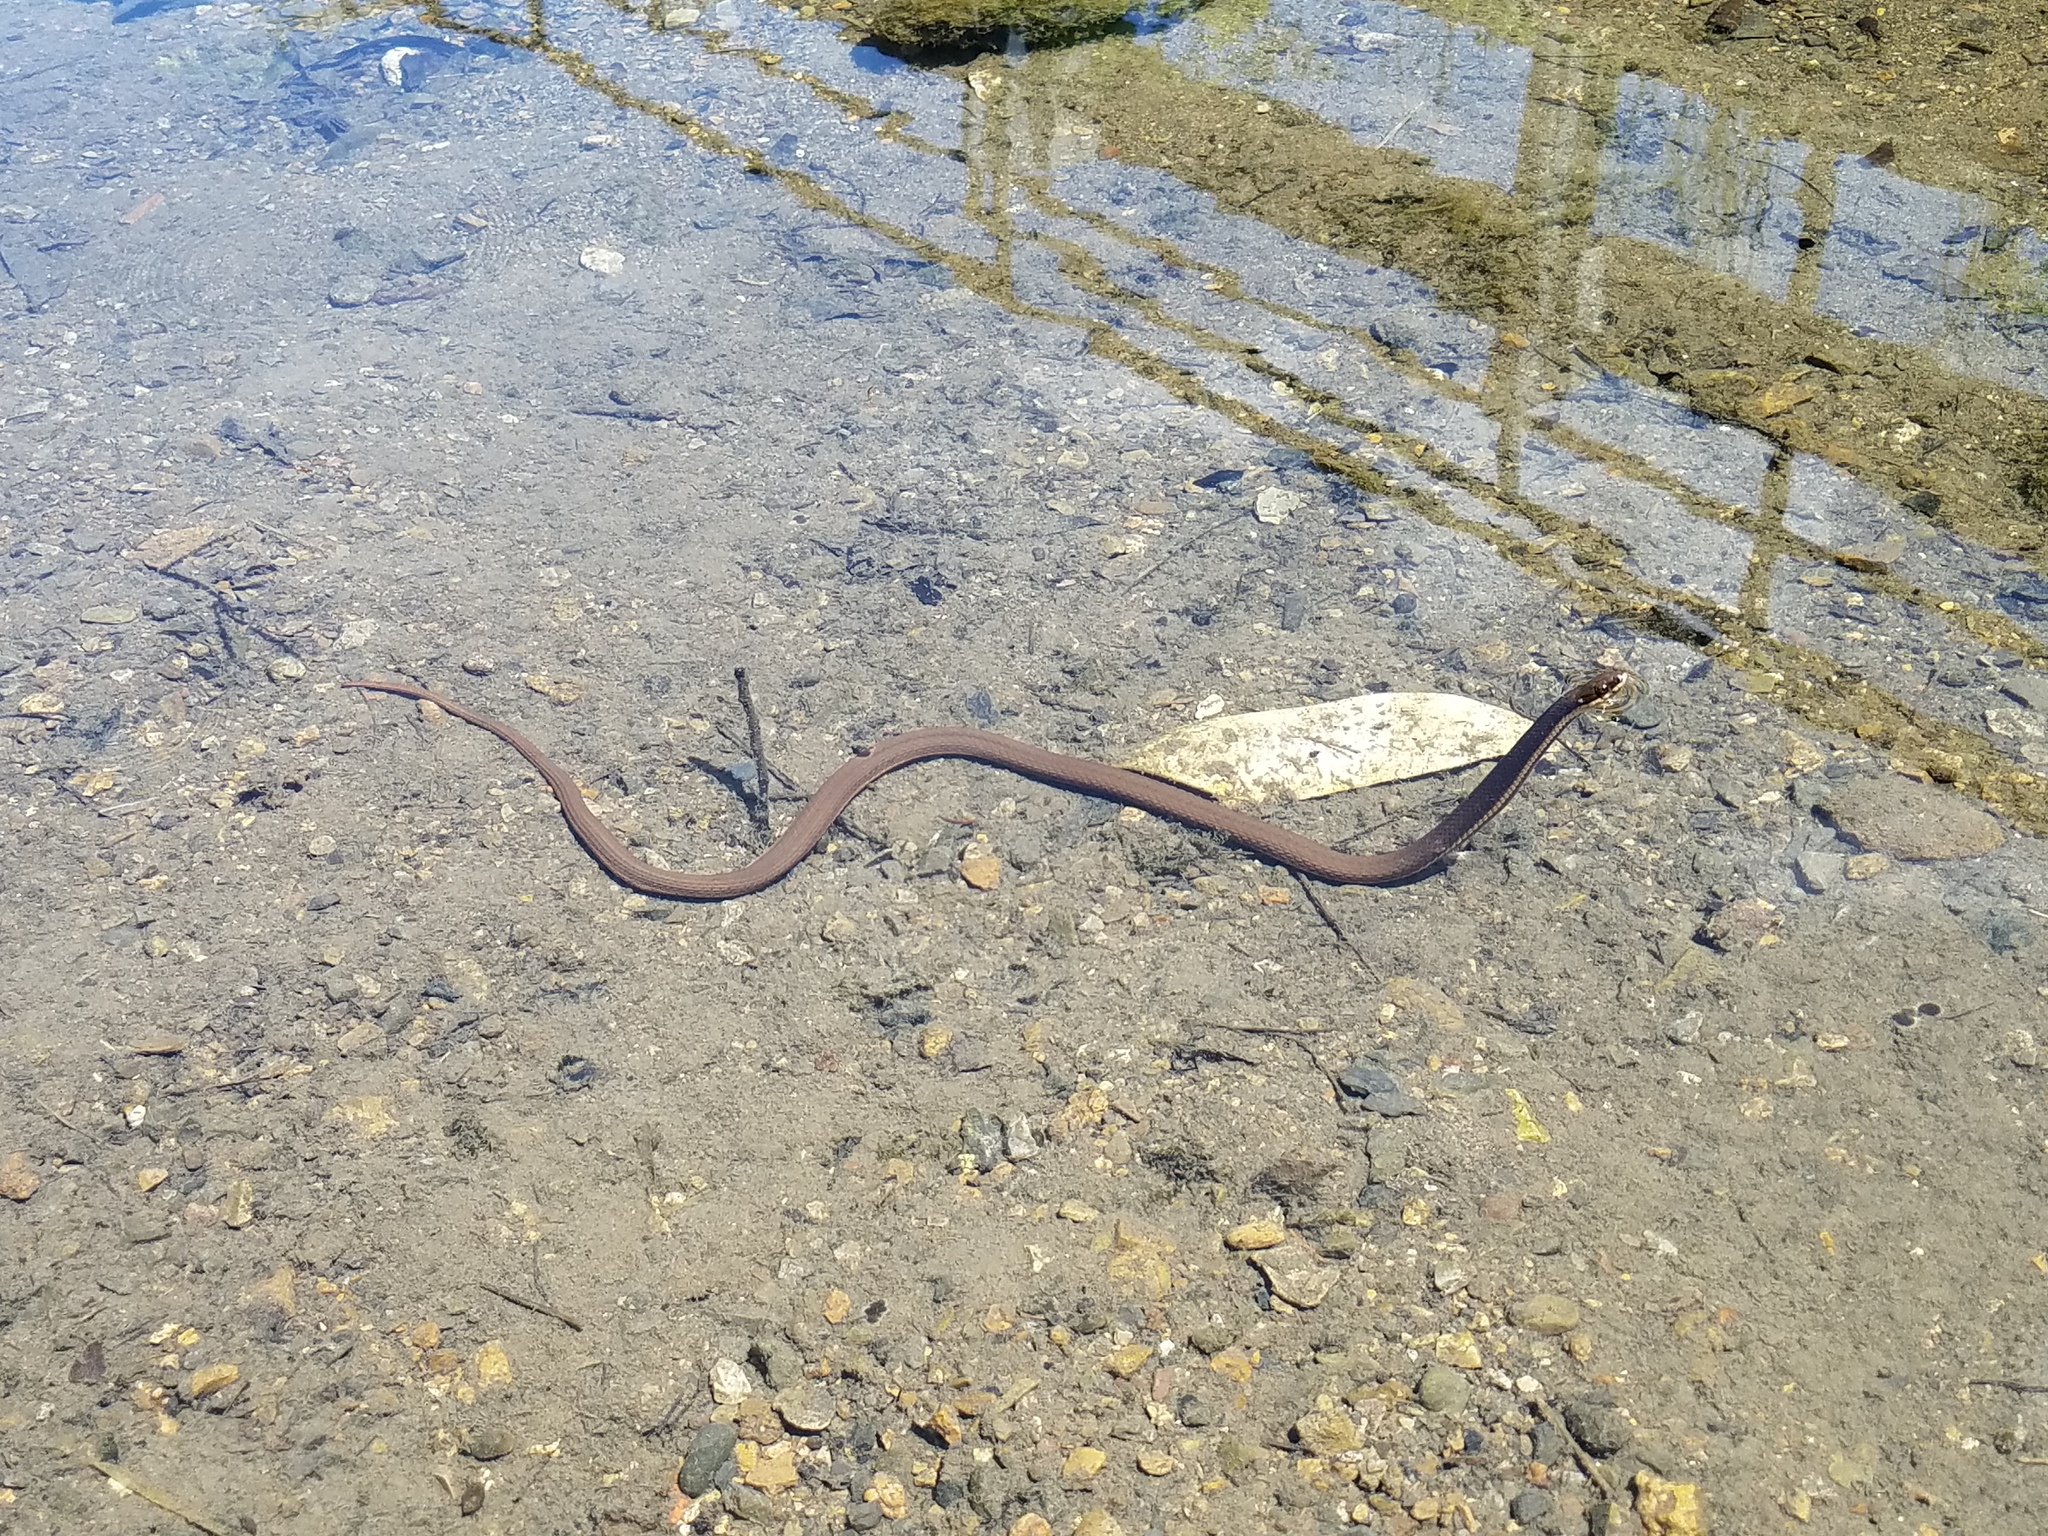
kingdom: Animalia
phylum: Chordata
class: Squamata
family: Colubridae
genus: Regina
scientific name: Regina septemvittata
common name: Queen snake
